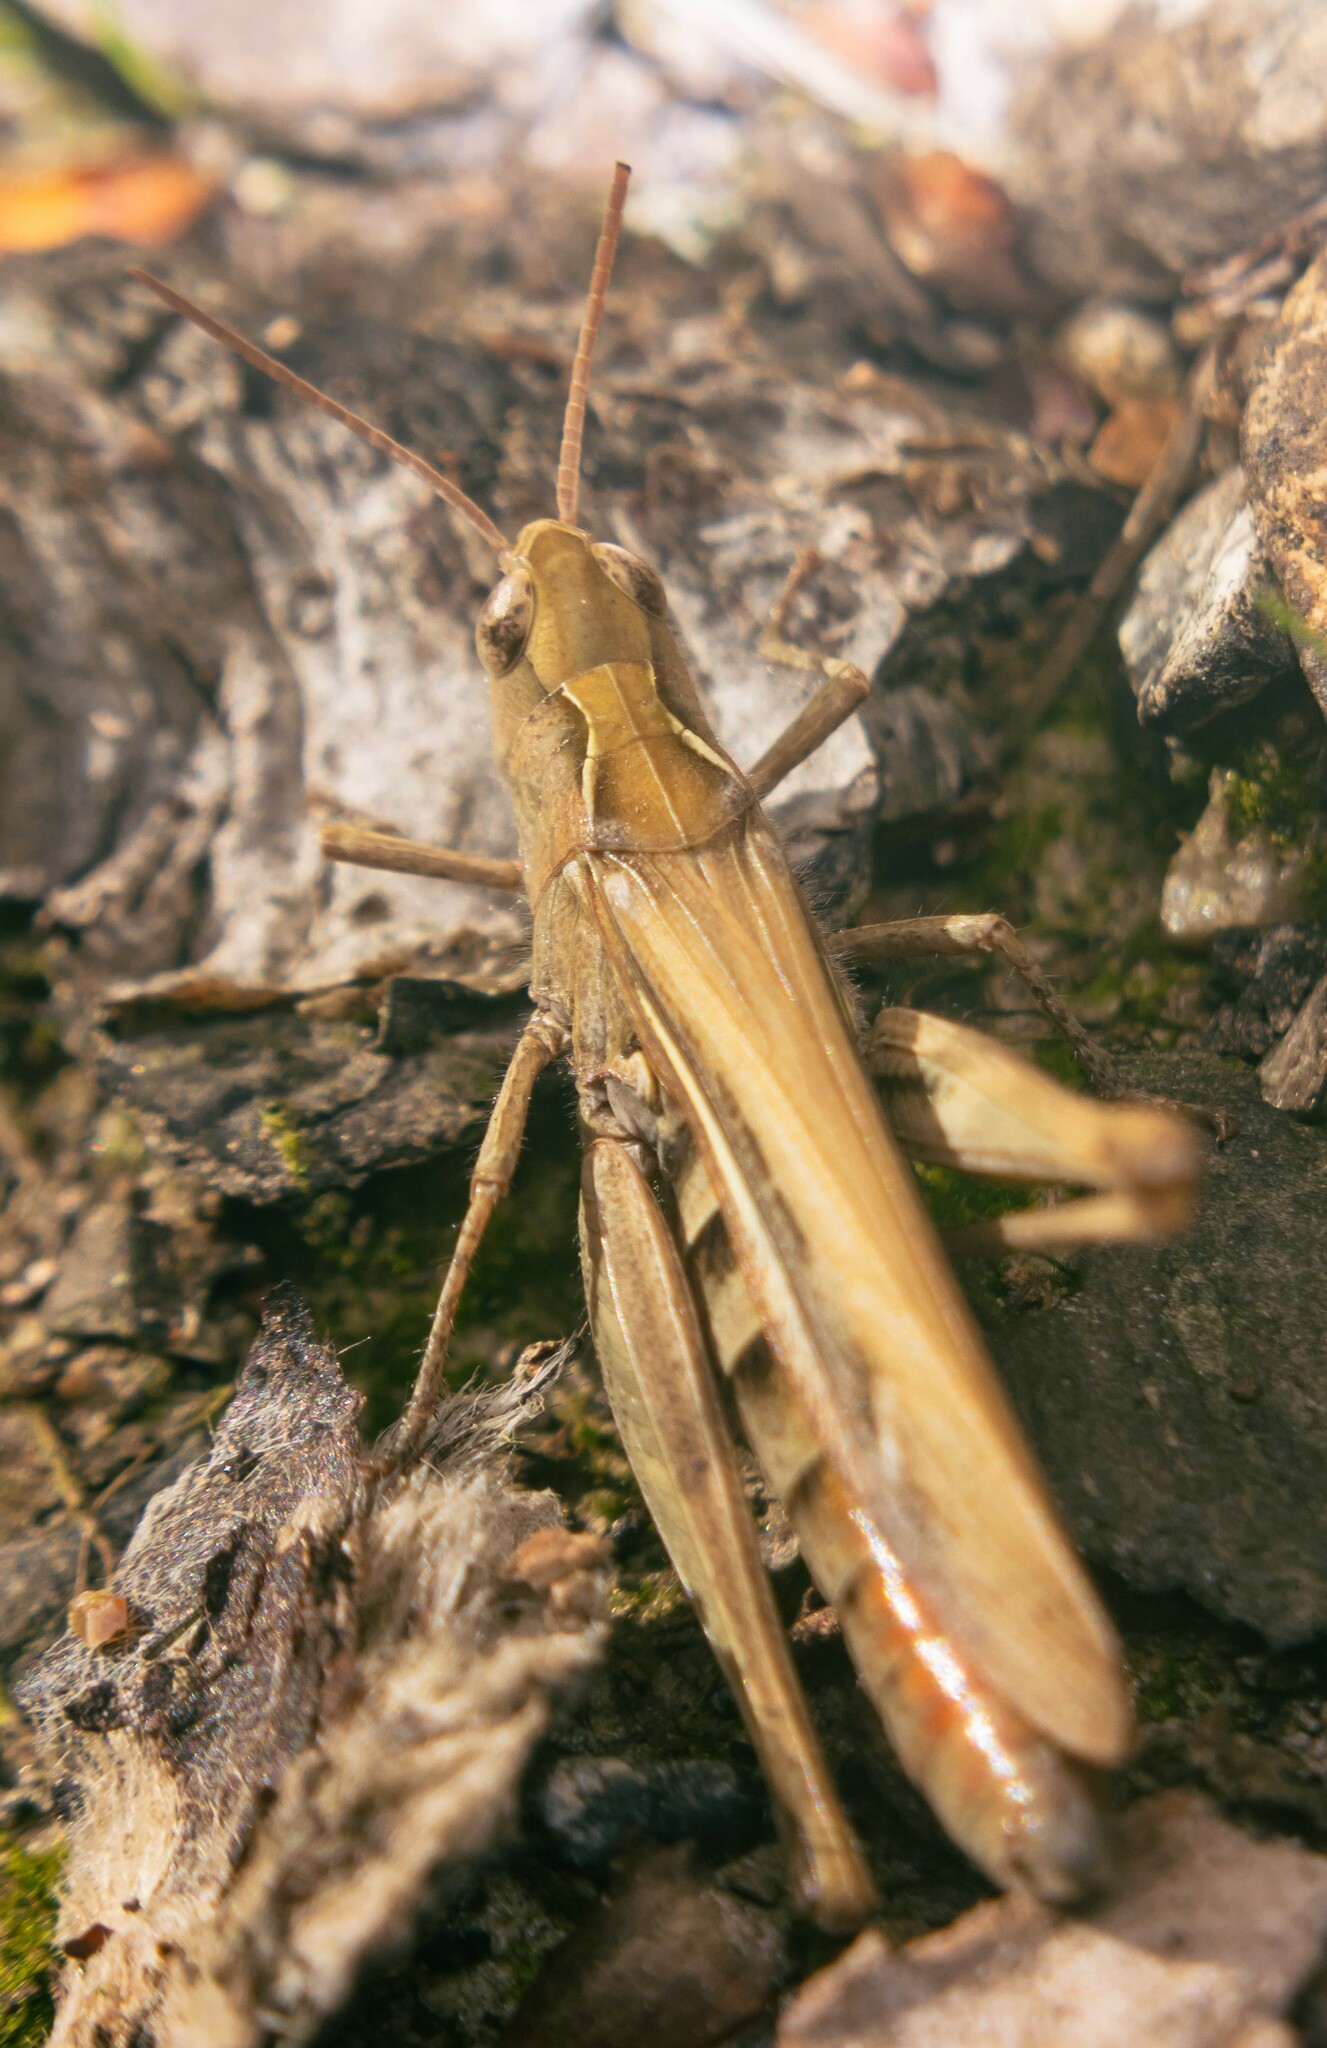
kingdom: Animalia
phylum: Arthropoda
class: Insecta
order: Orthoptera
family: Acrididae
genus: Chorthippus
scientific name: Chorthippus brunneus
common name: Field grasshopper
